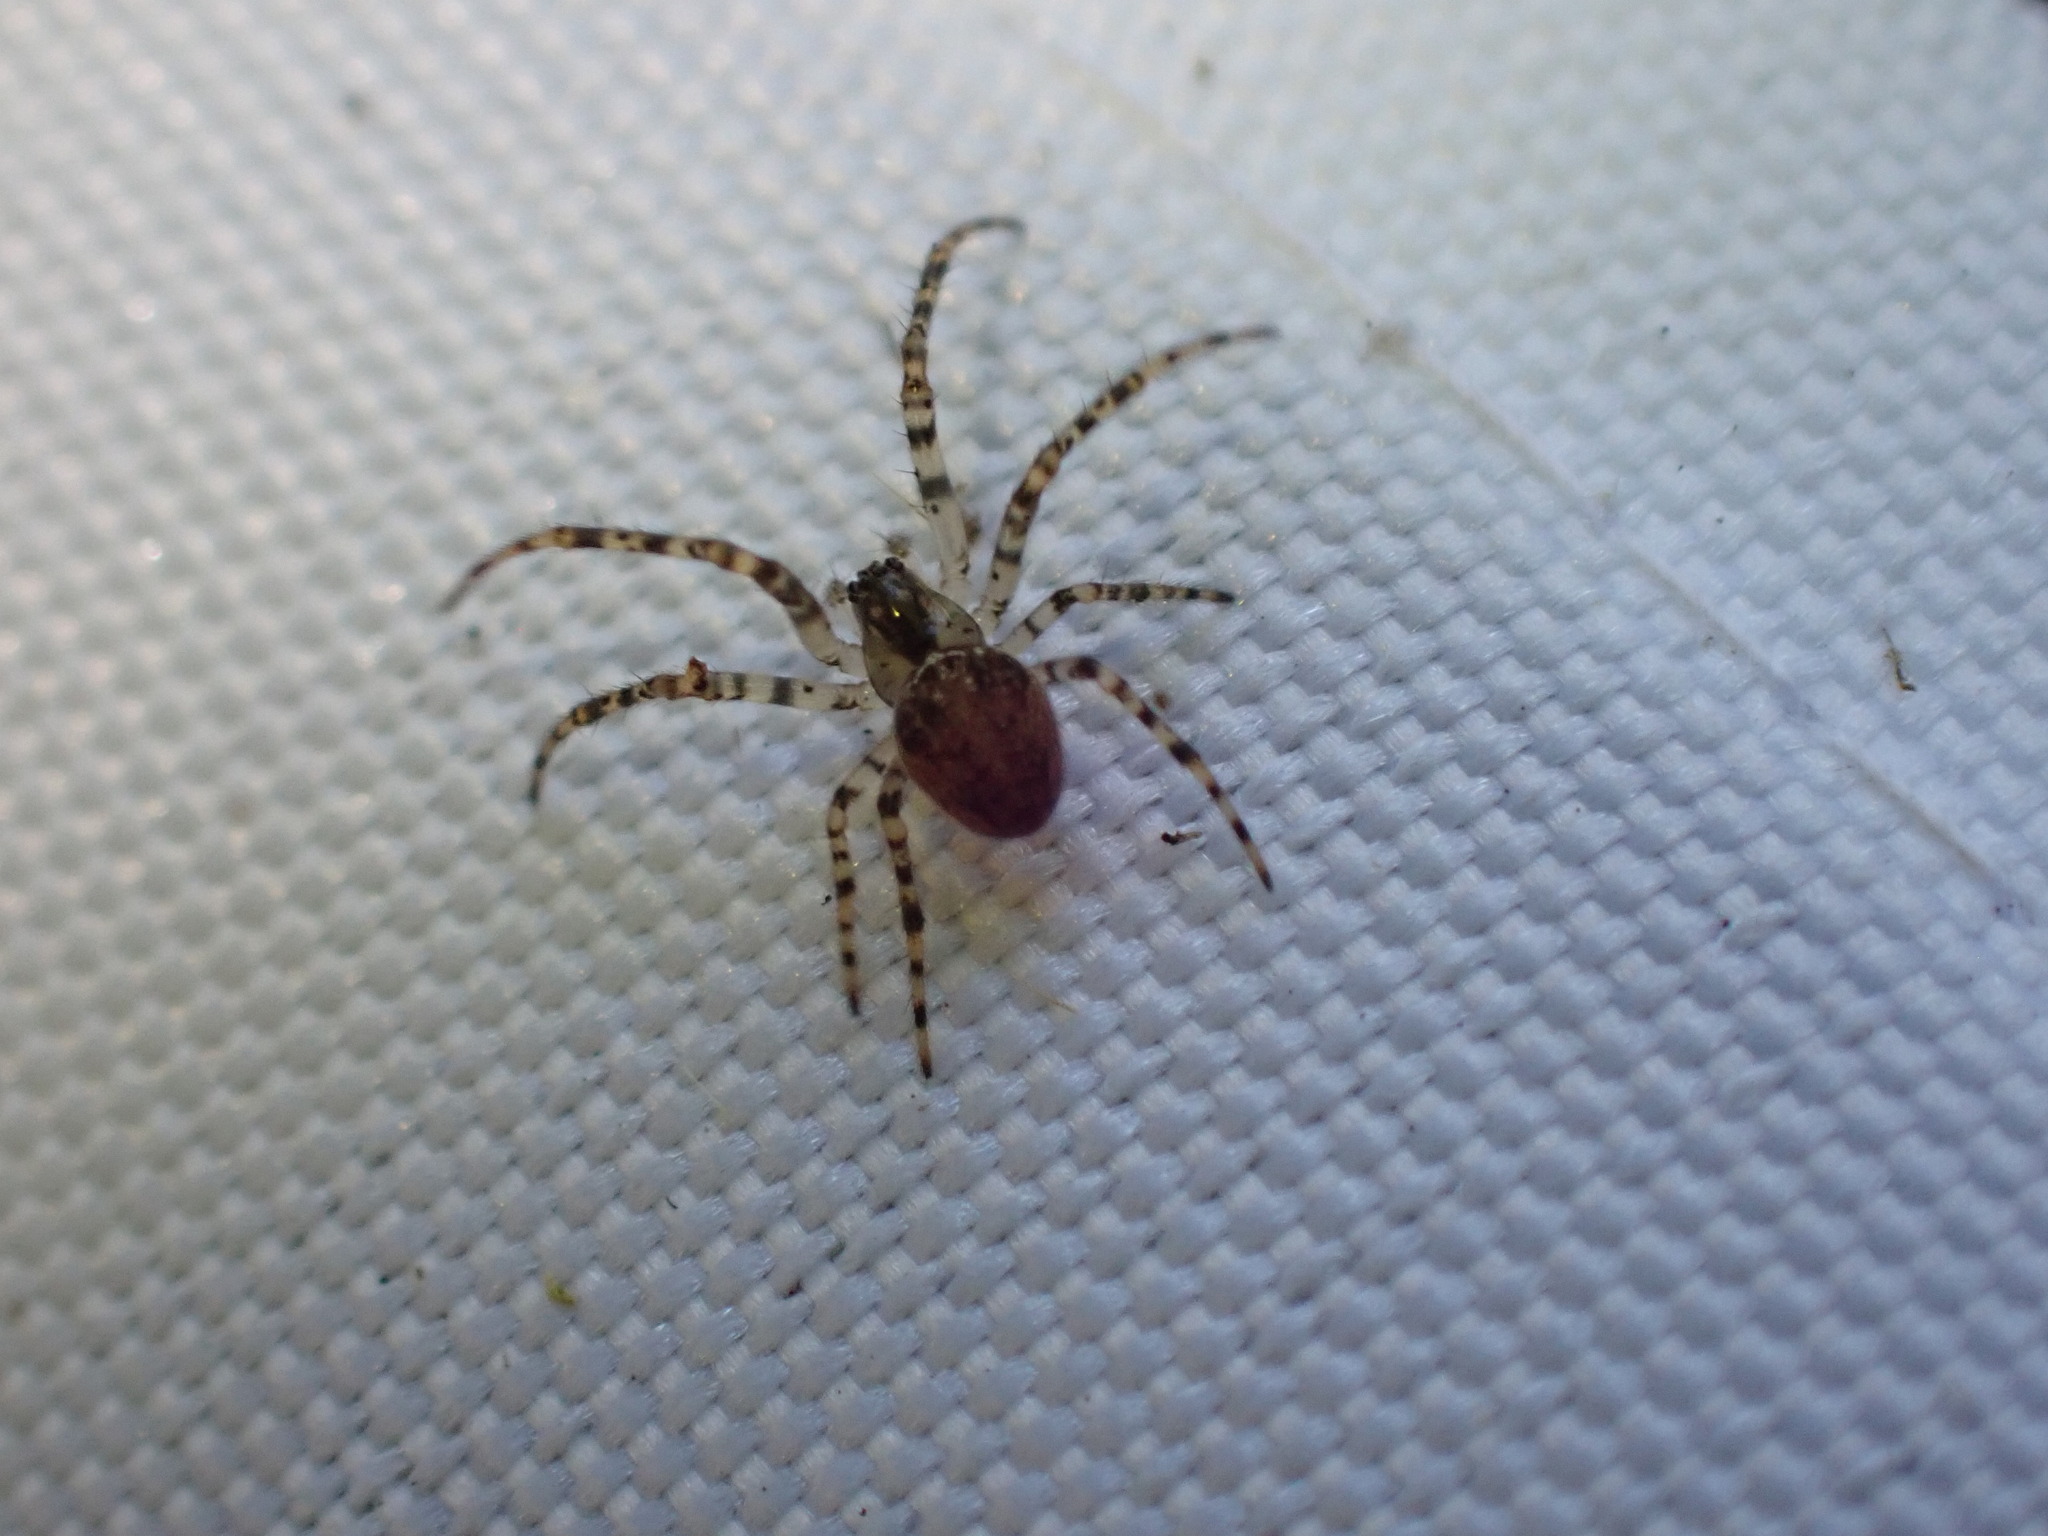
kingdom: Animalia
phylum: Arthropoda
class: Arachnida
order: Araneae
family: Tetragnathidae
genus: Metellina
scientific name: Metellina merianae
